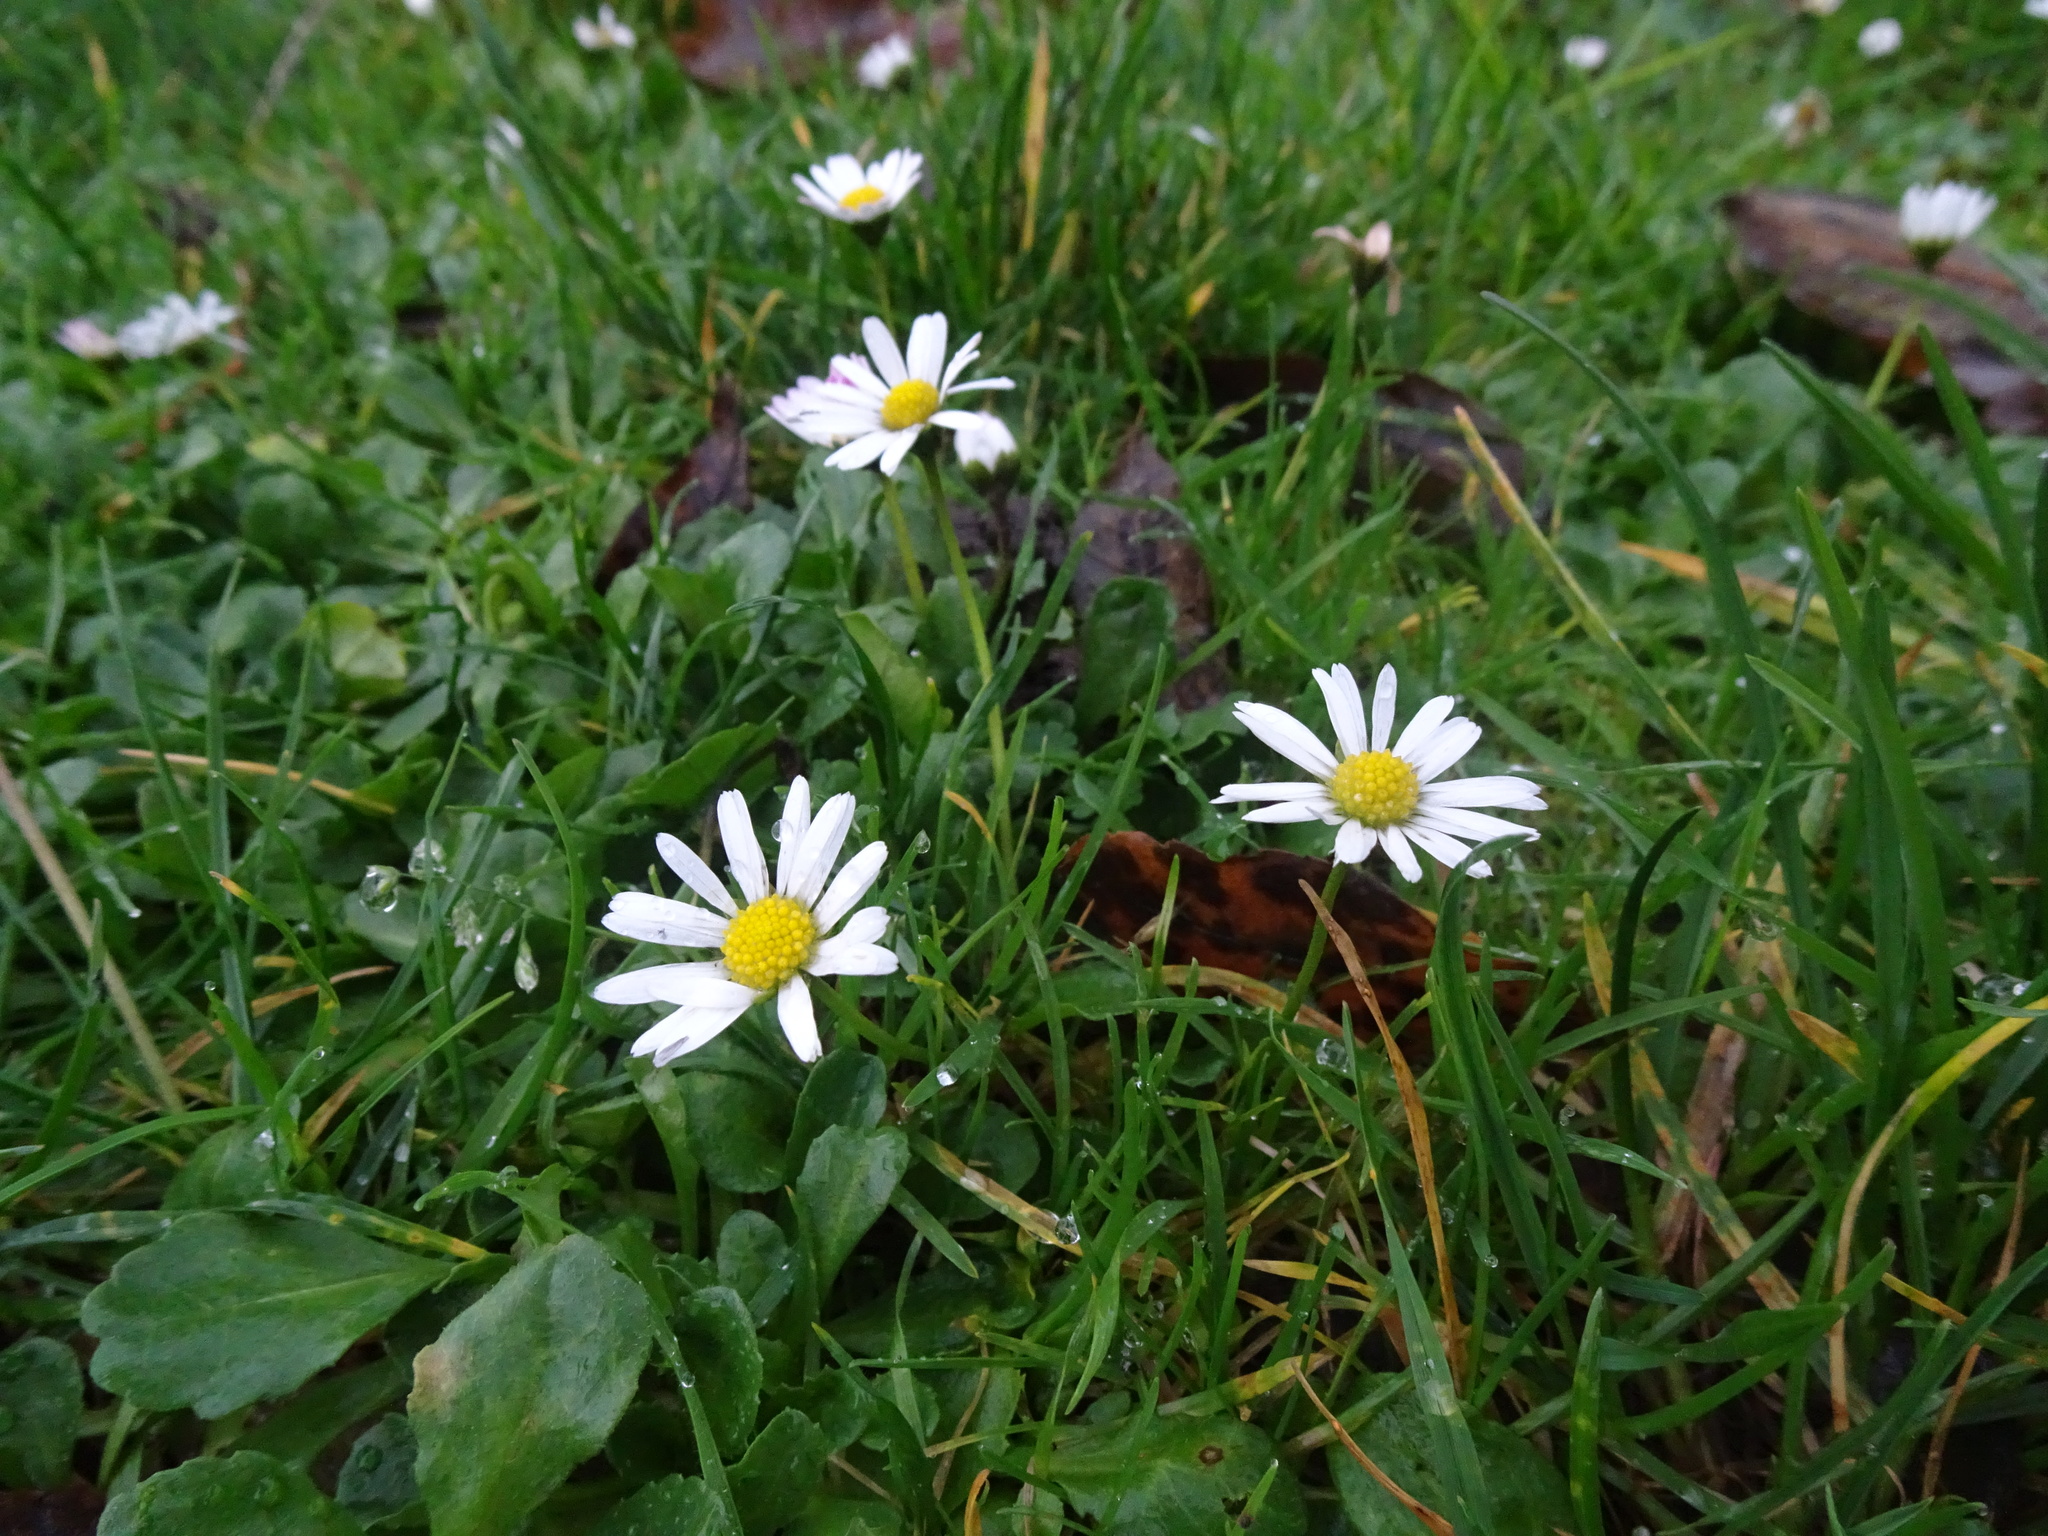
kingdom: Plantae
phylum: Tracheophyta
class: Magnoliopsida
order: Asterales
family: Asteraceae
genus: Bellis
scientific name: Bellis perennis
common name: Lawndaisy
